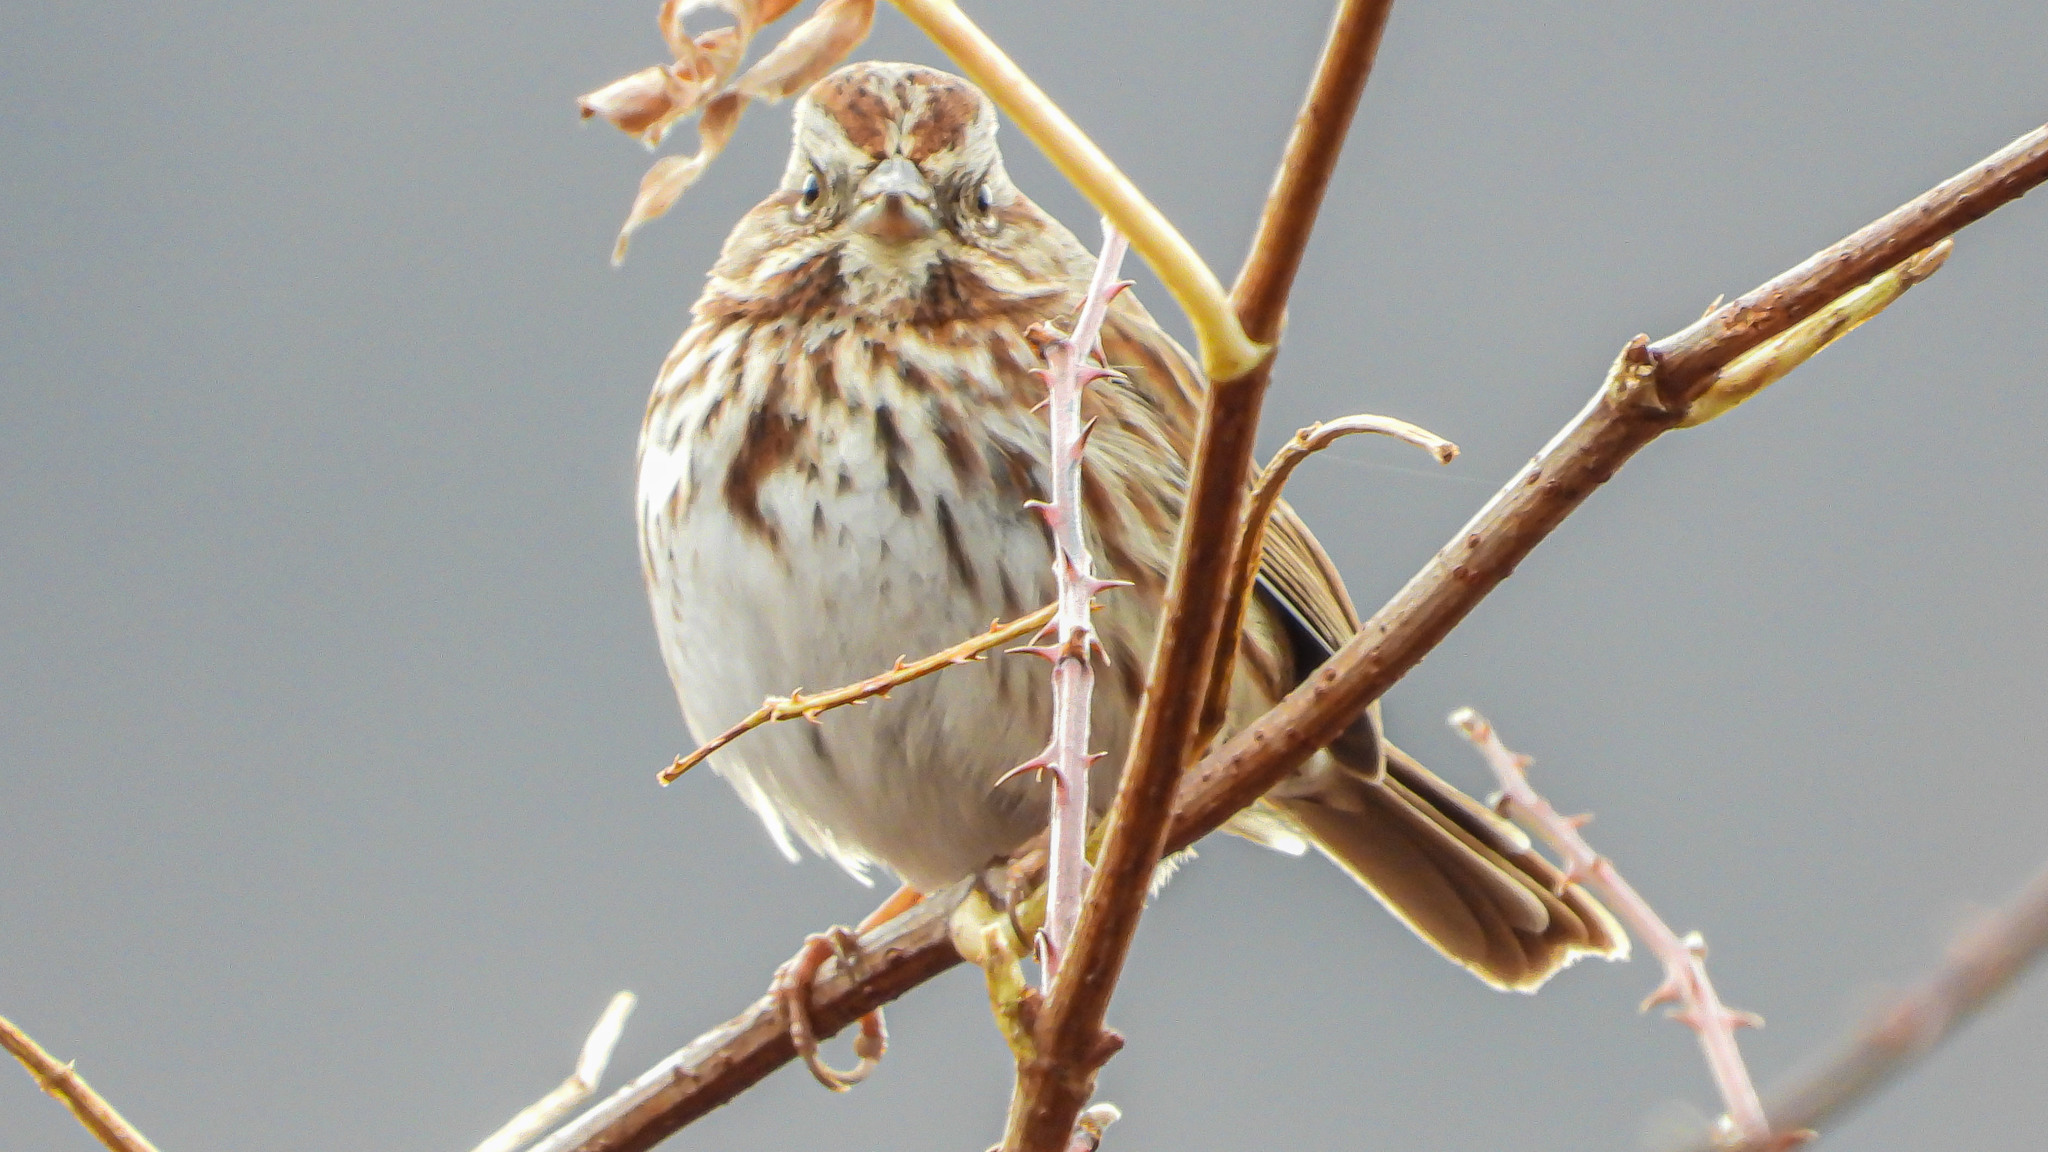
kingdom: Animalia
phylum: Chordata
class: Aves
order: Passeriformes
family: Passerellidae
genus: Melospiza
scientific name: Melospiza melodia
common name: Song sparrow
